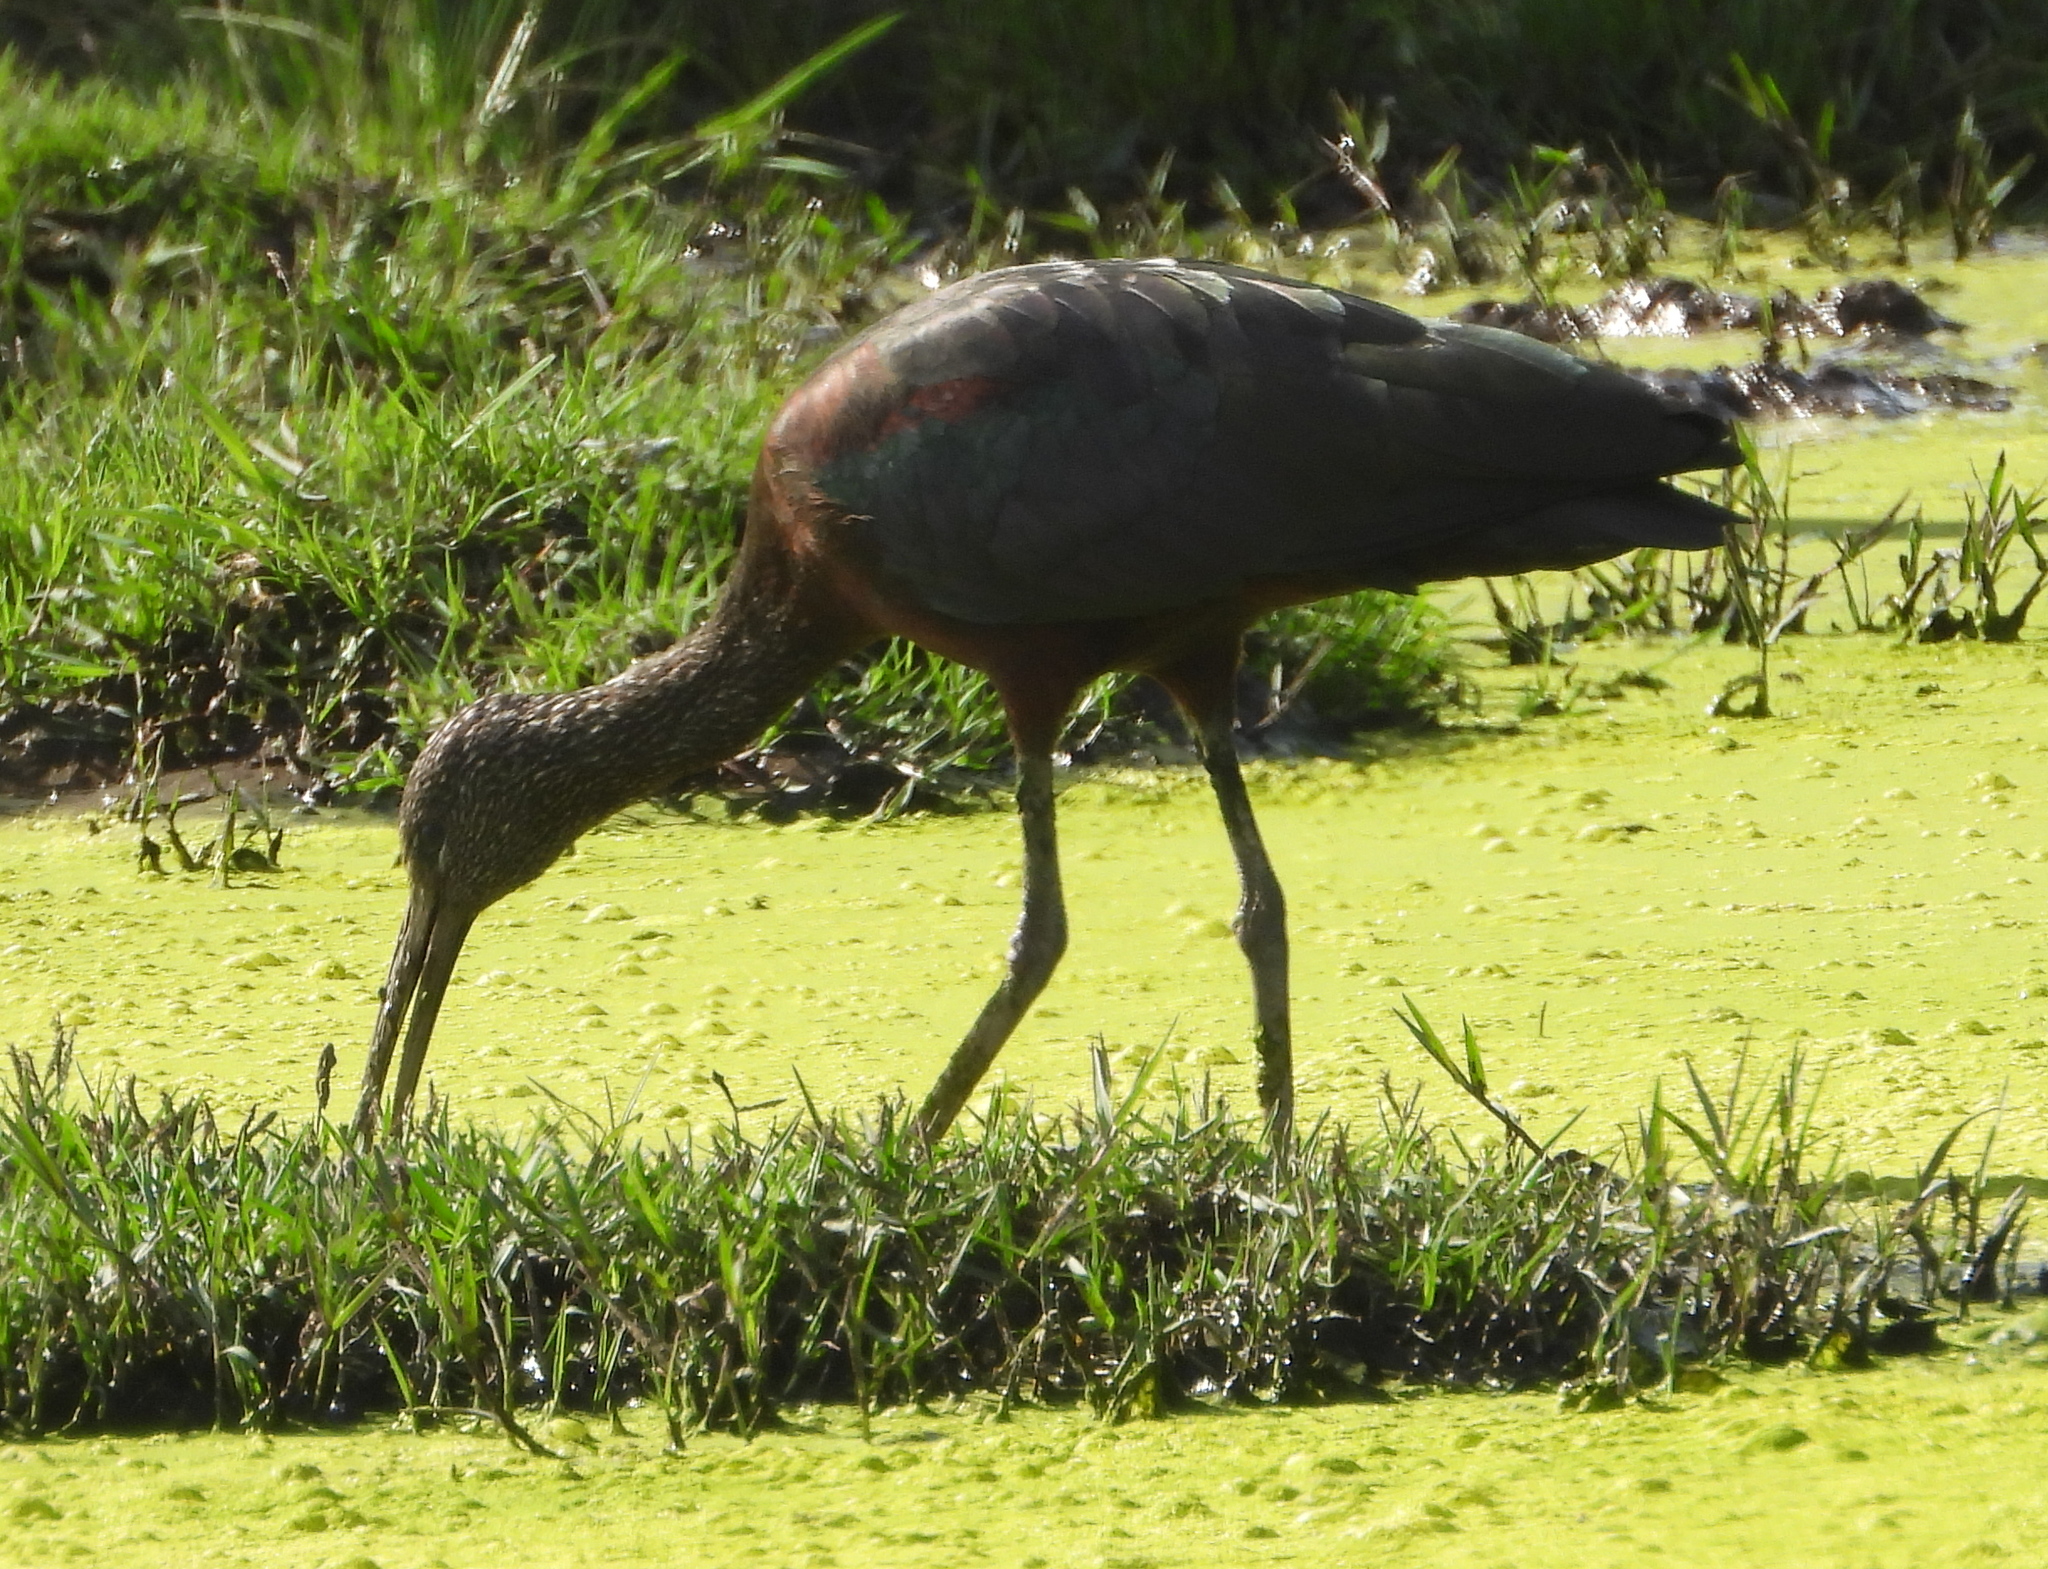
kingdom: Animalia
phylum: Chordata
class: Aves
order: Pelecaniformes
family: Threskiornithidae
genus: Plegadis
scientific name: Plegadis falcinellus
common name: Glossy ibis
